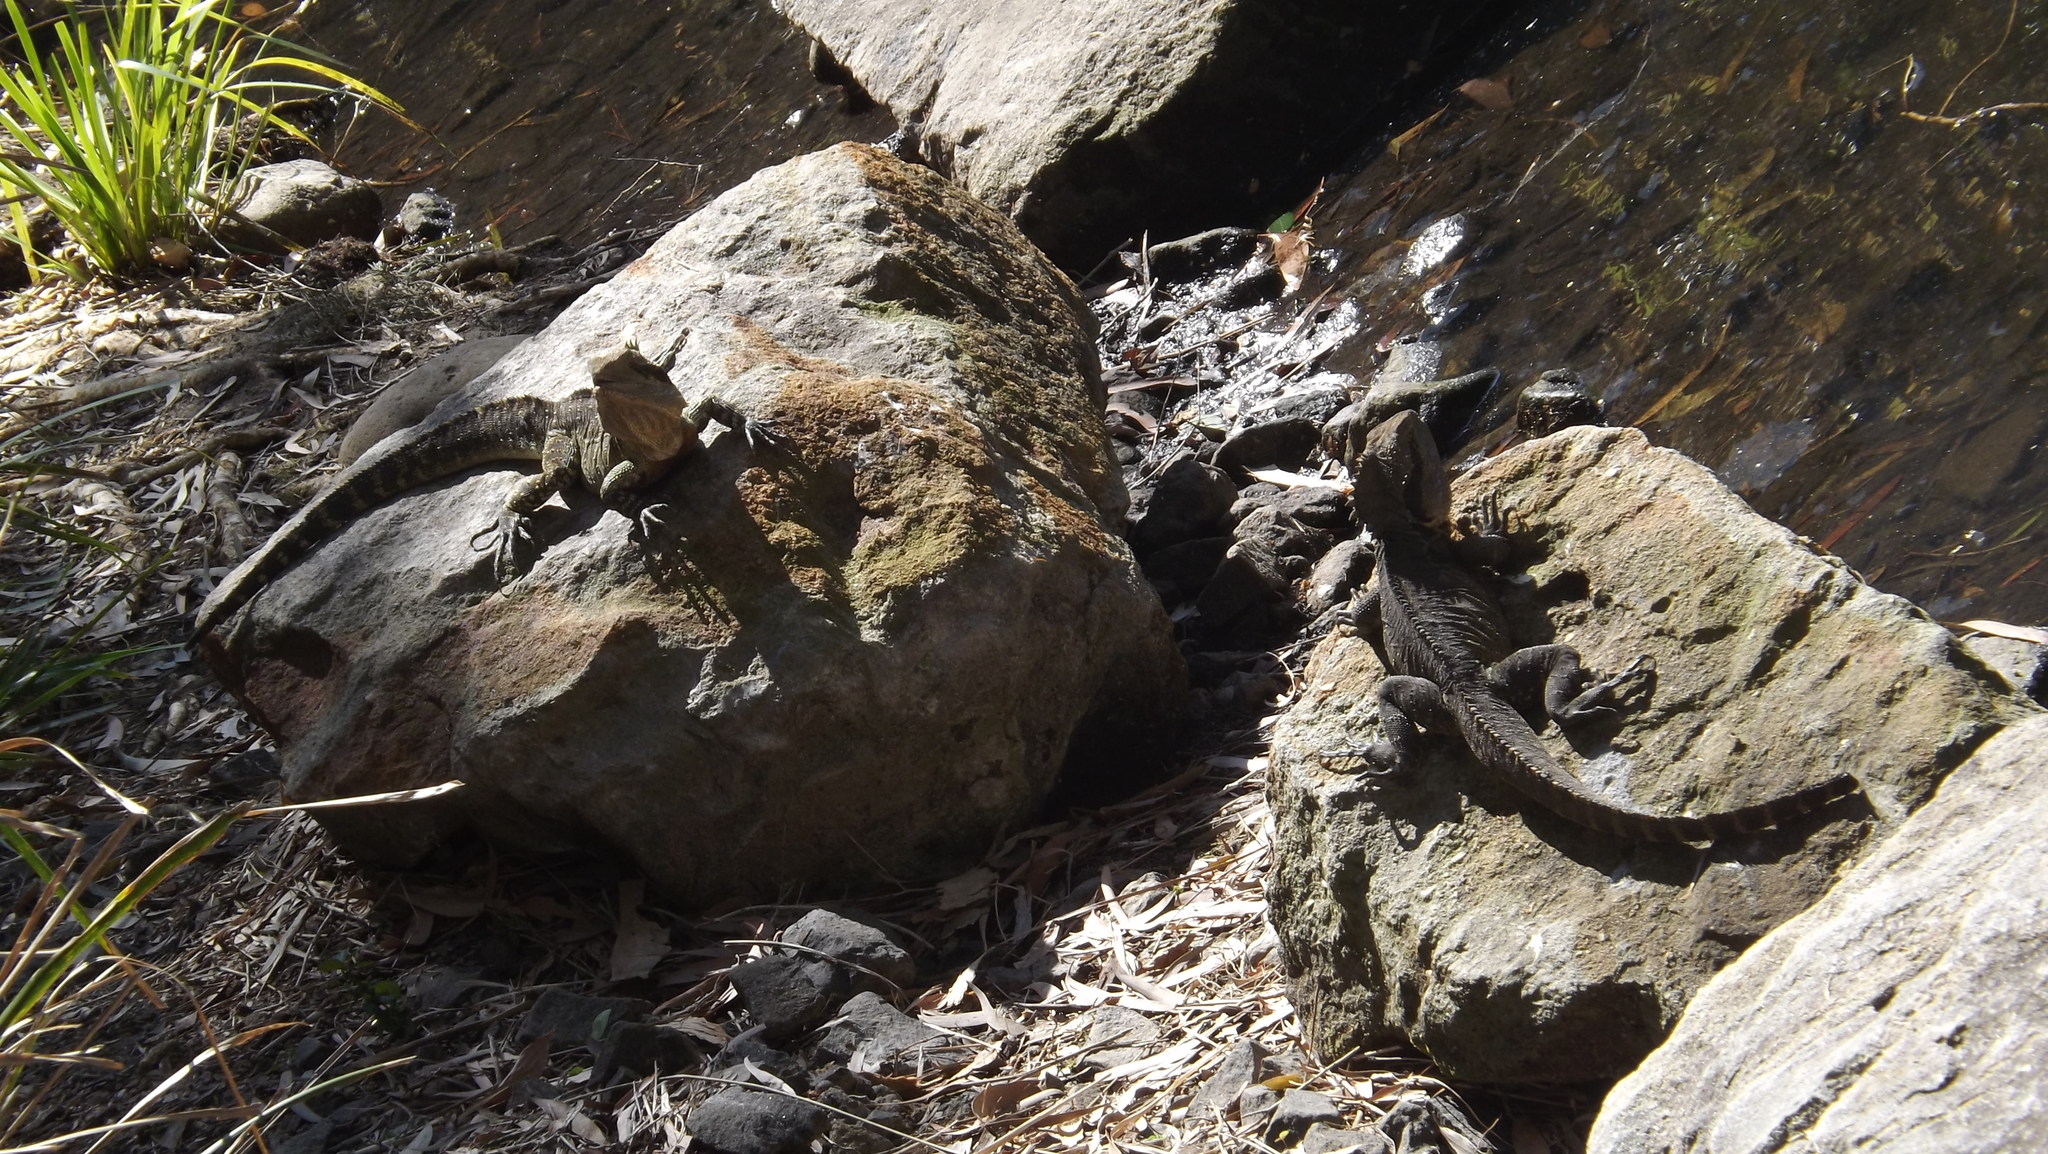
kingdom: Animalia
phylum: Chordata
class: Squamata
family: Agamidae
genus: Intellagama
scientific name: Intellagama lesueurii
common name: Eastern water dragon
